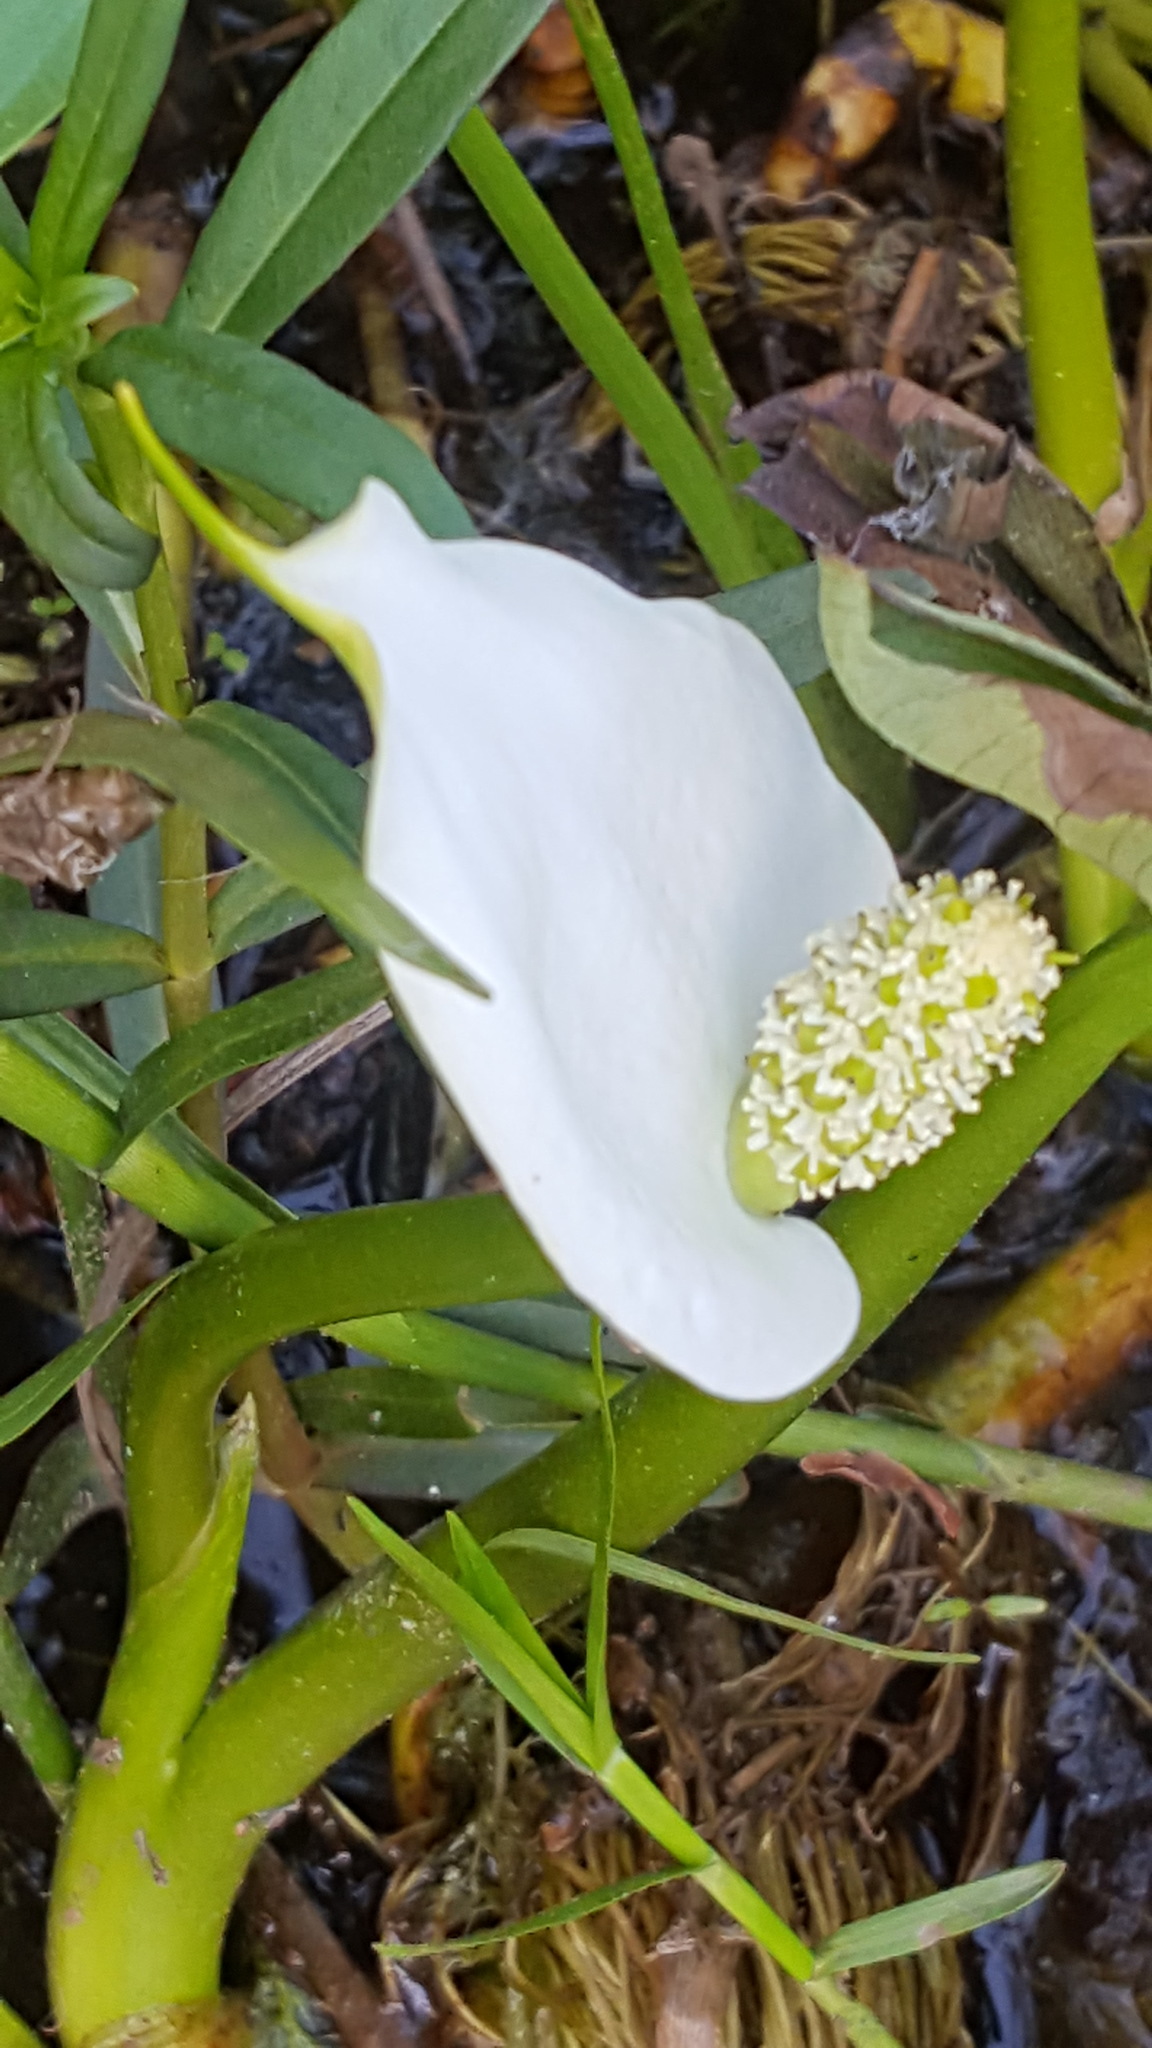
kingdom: Plantae
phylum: Tracheophyta
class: Liliopsida
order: Alismatales
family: Araceae
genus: Calla
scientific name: Calla palustris
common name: Bog arum
